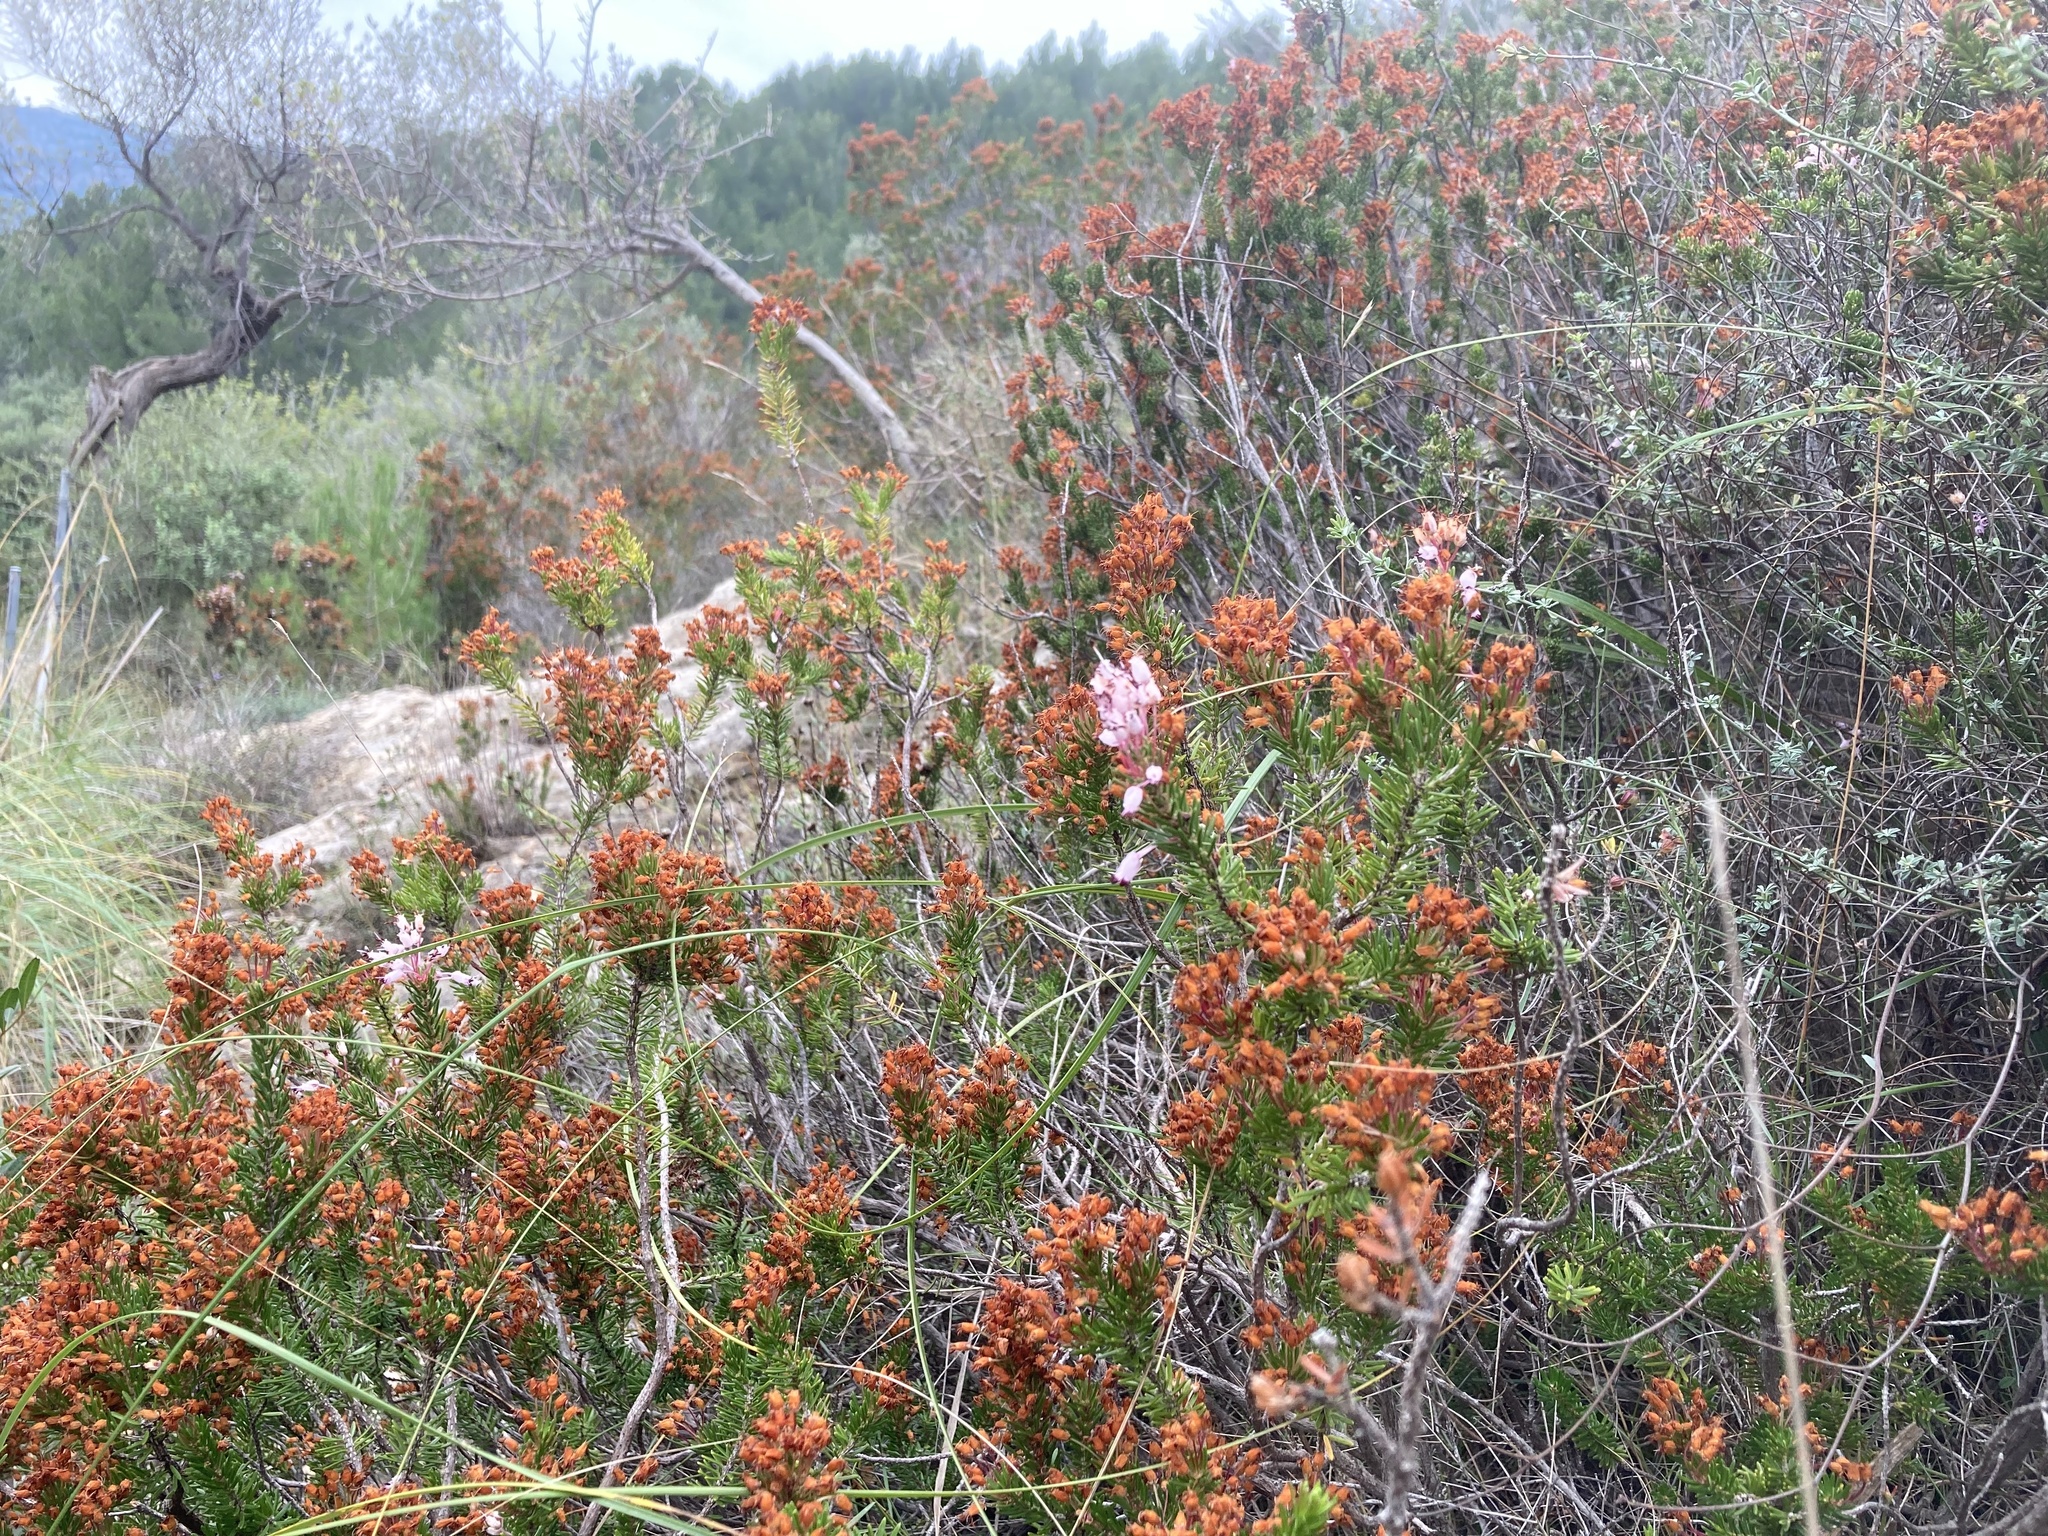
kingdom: Plantae
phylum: Tracheophyta
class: Magnoliopsida
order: Ericales
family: Ericaceae
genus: Erica
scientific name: Erica multiflora
